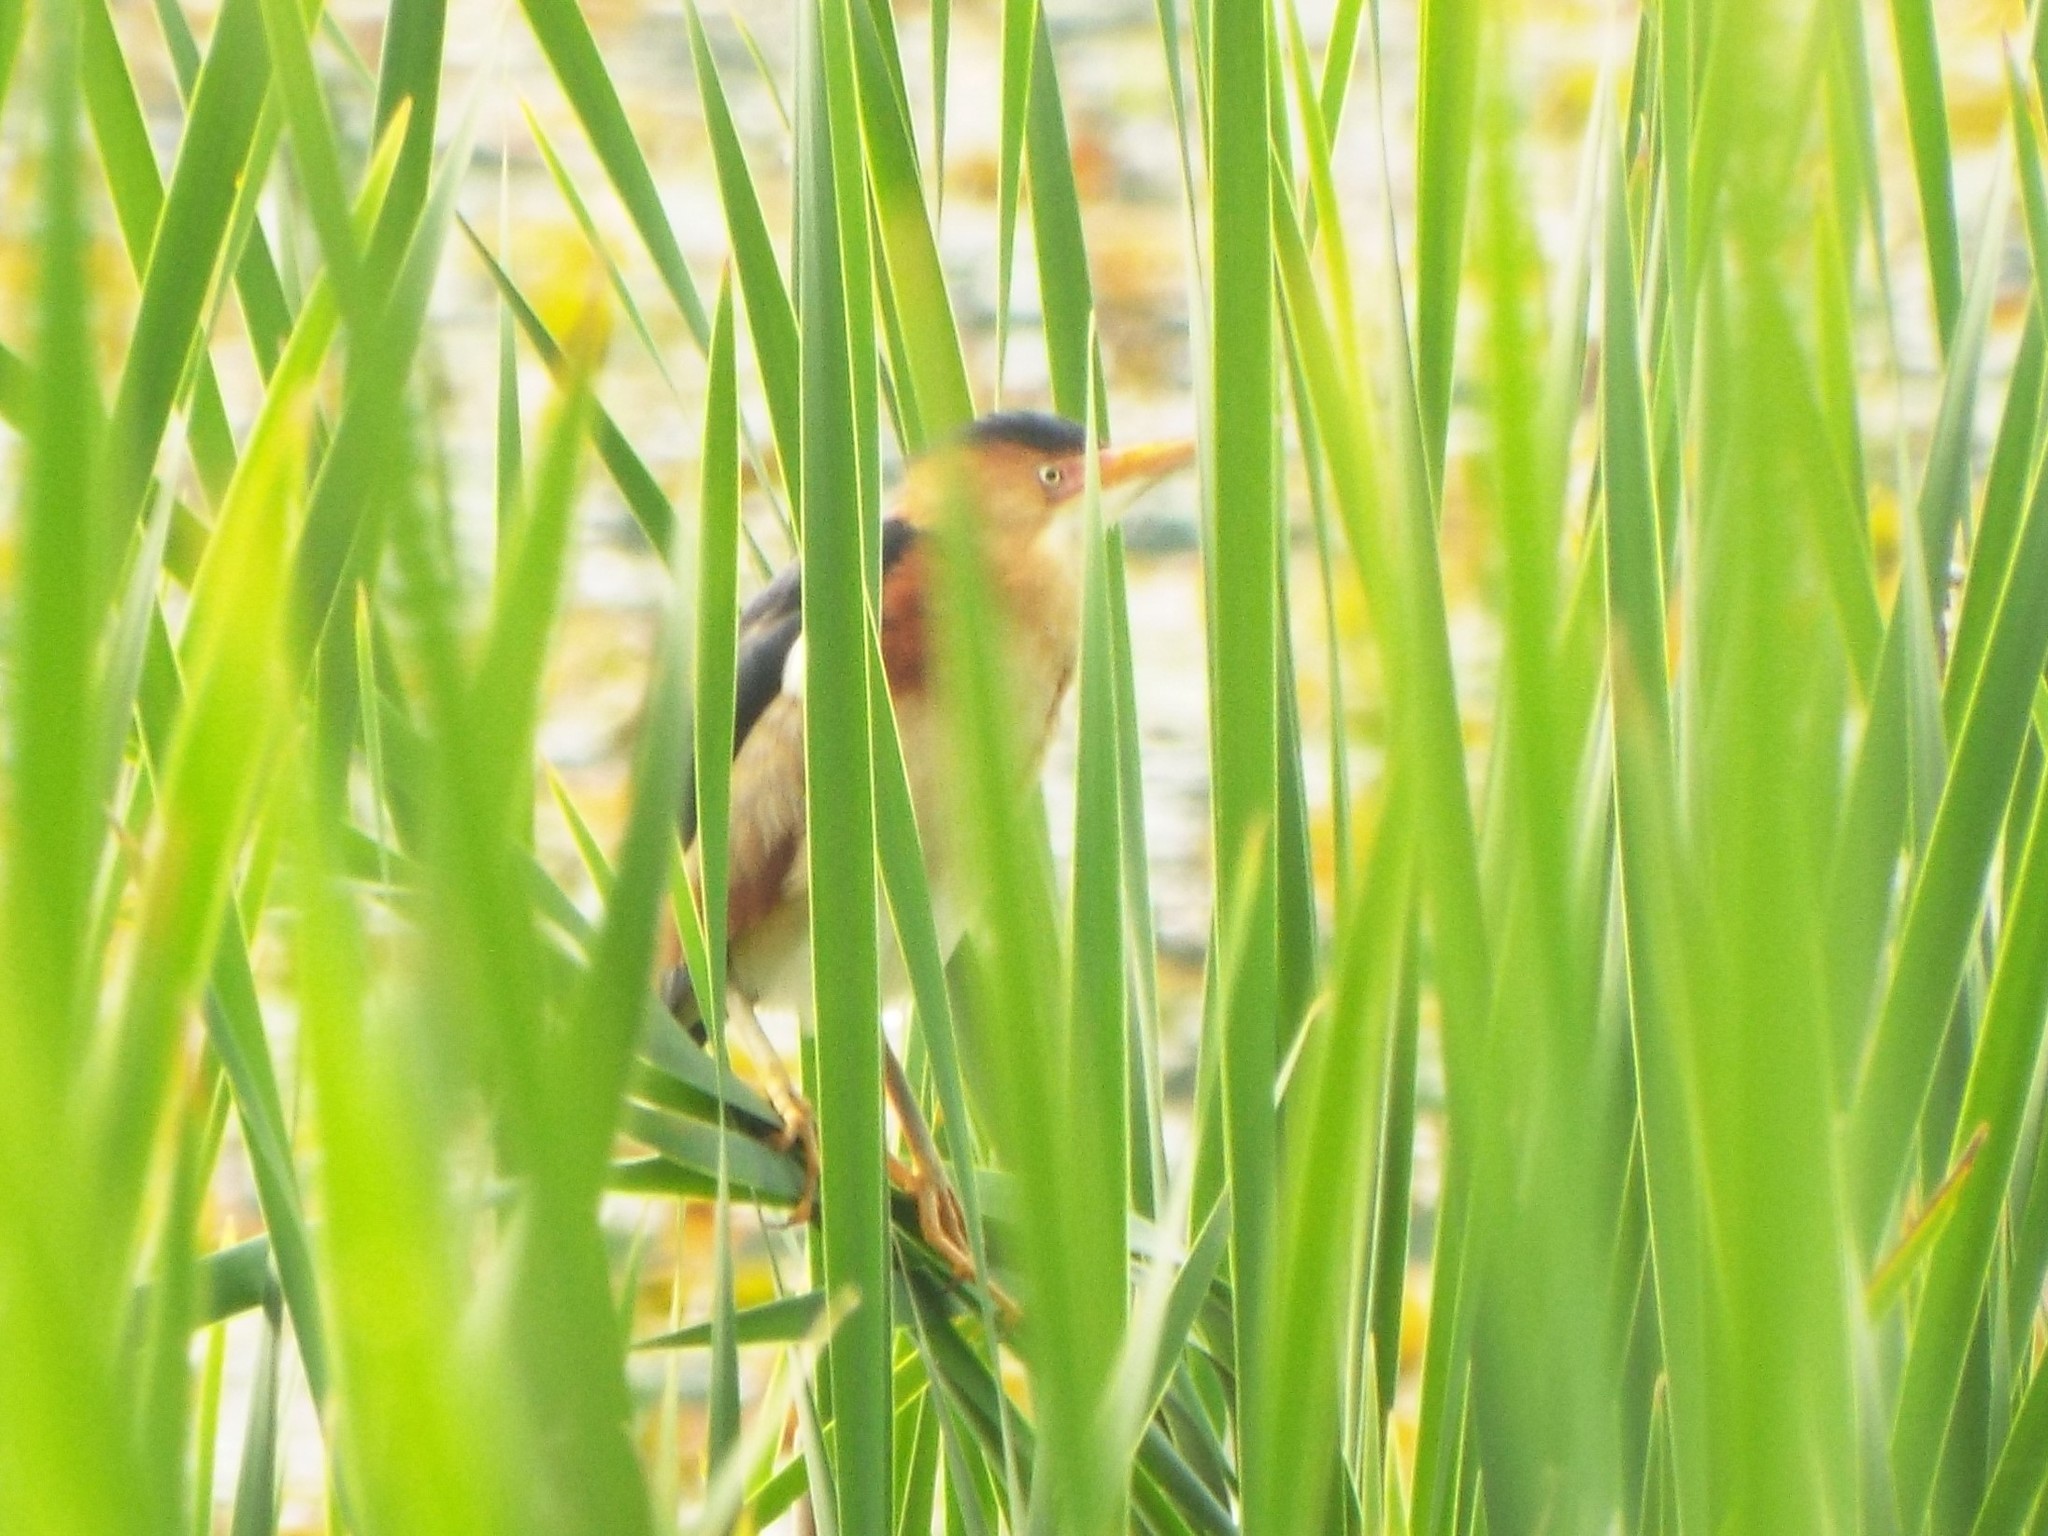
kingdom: Animalia
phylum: Chordata
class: Aves
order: Pelecaniformes
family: Ardeidae
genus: Ixobrychus
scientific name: Ixobrychus exilis
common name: Least bittern
